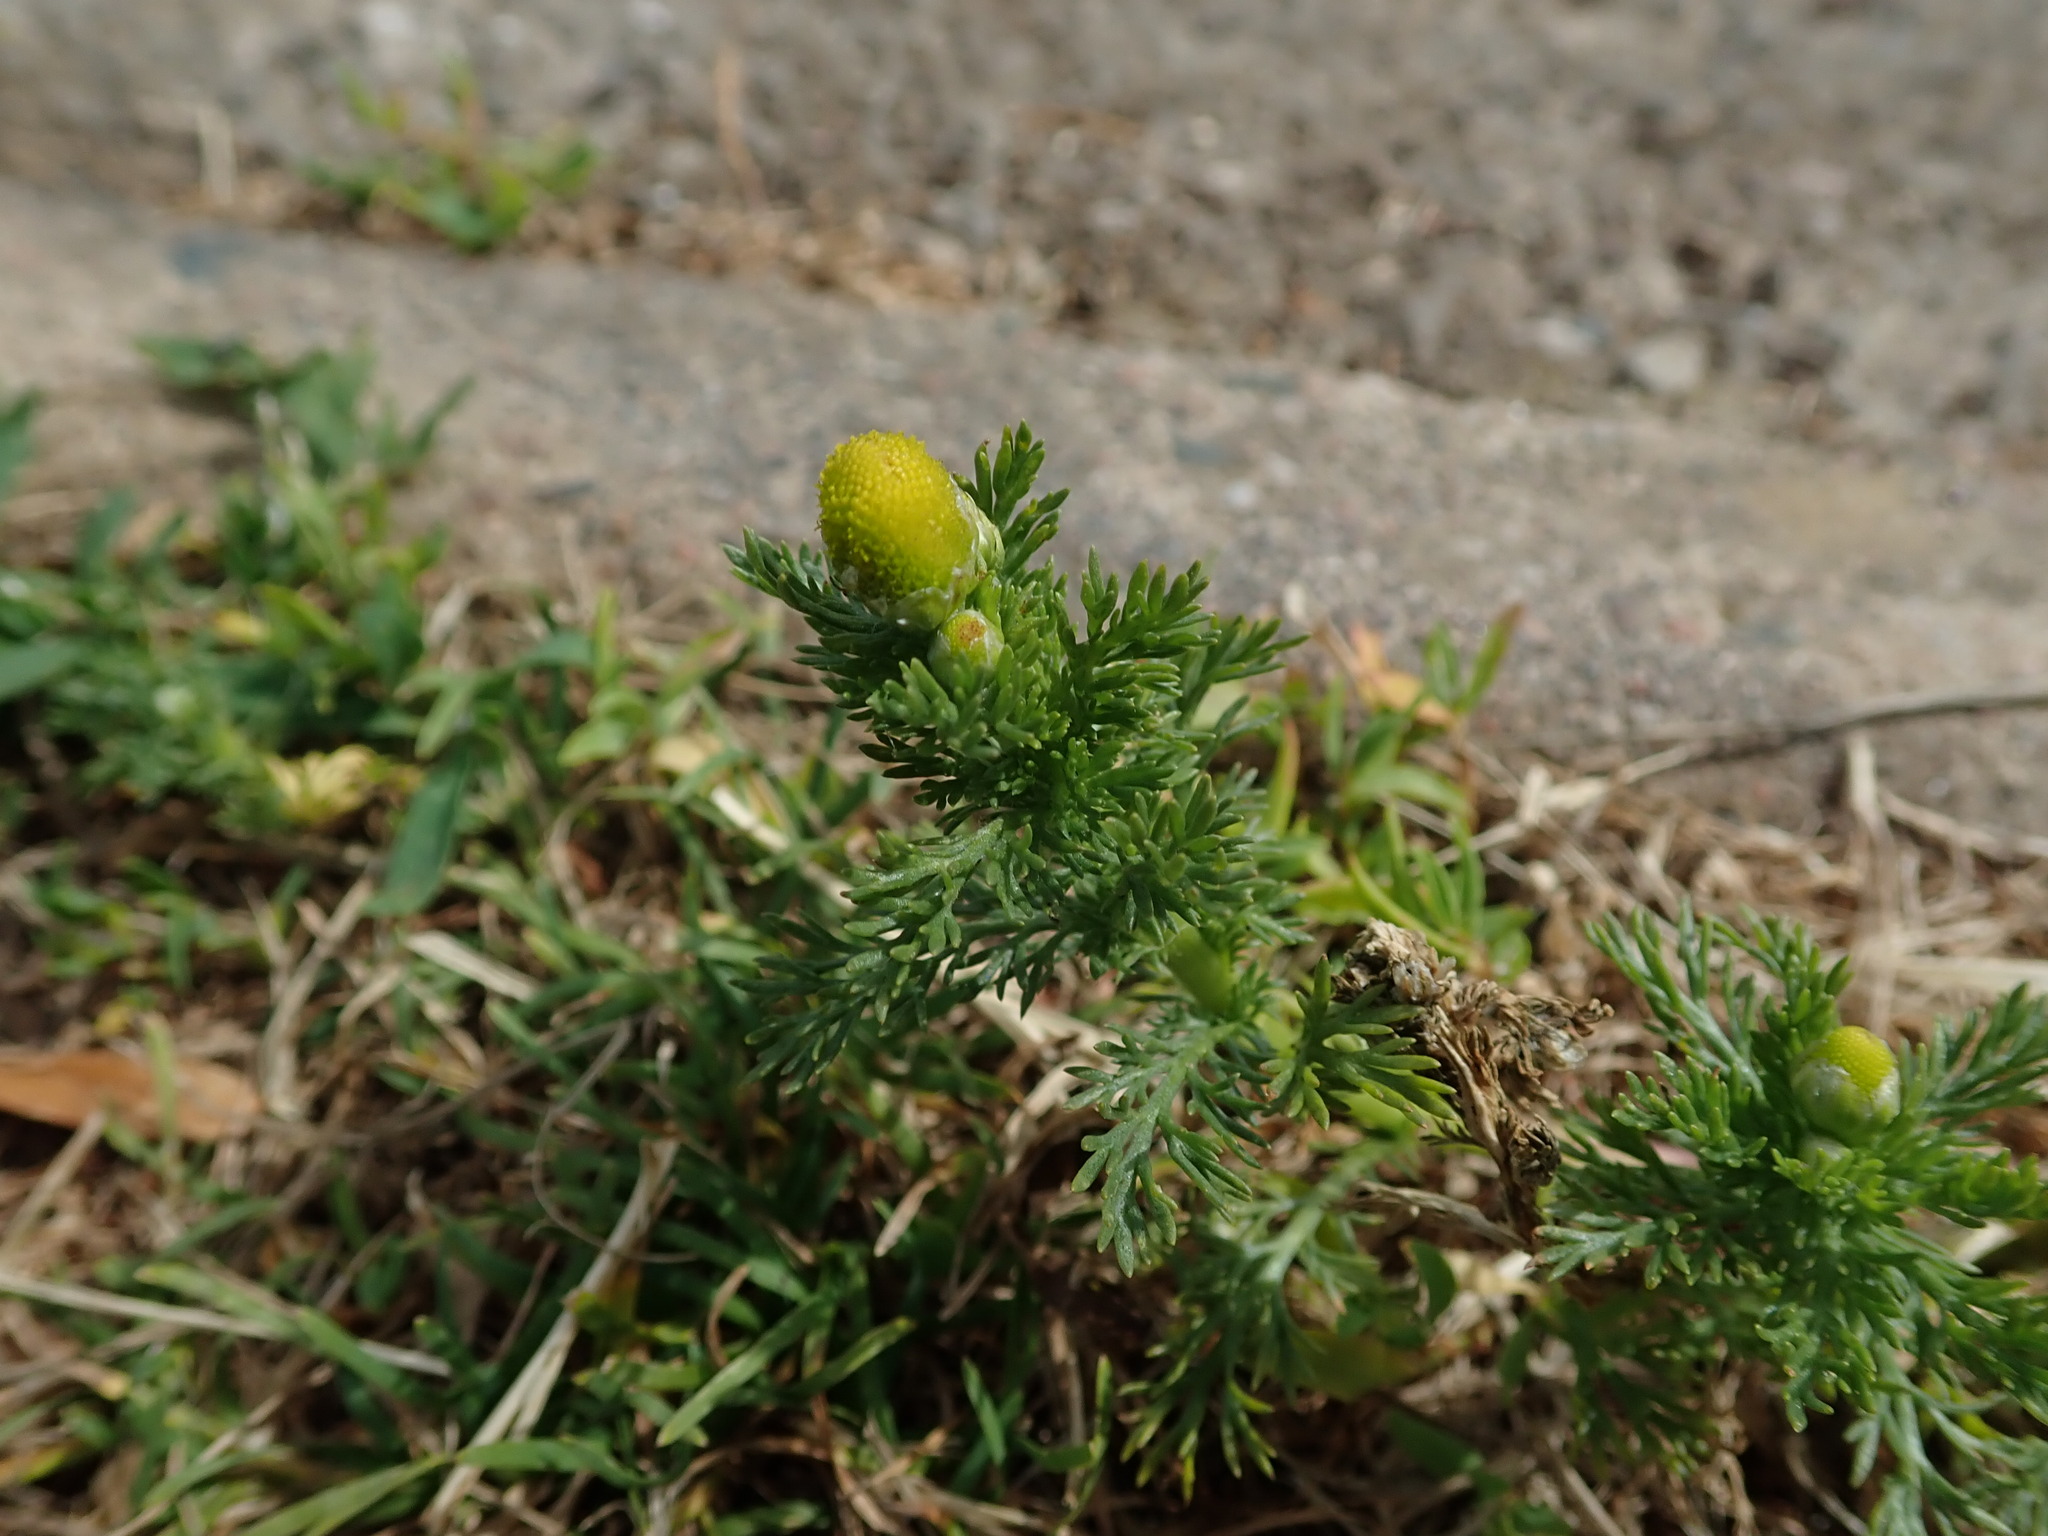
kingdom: Plantae
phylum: Tracheophyta
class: Magnoliopsida
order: Asterales
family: Asteraceae
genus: Matricaria
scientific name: Matricaria discoidea
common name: Disc mayweed
